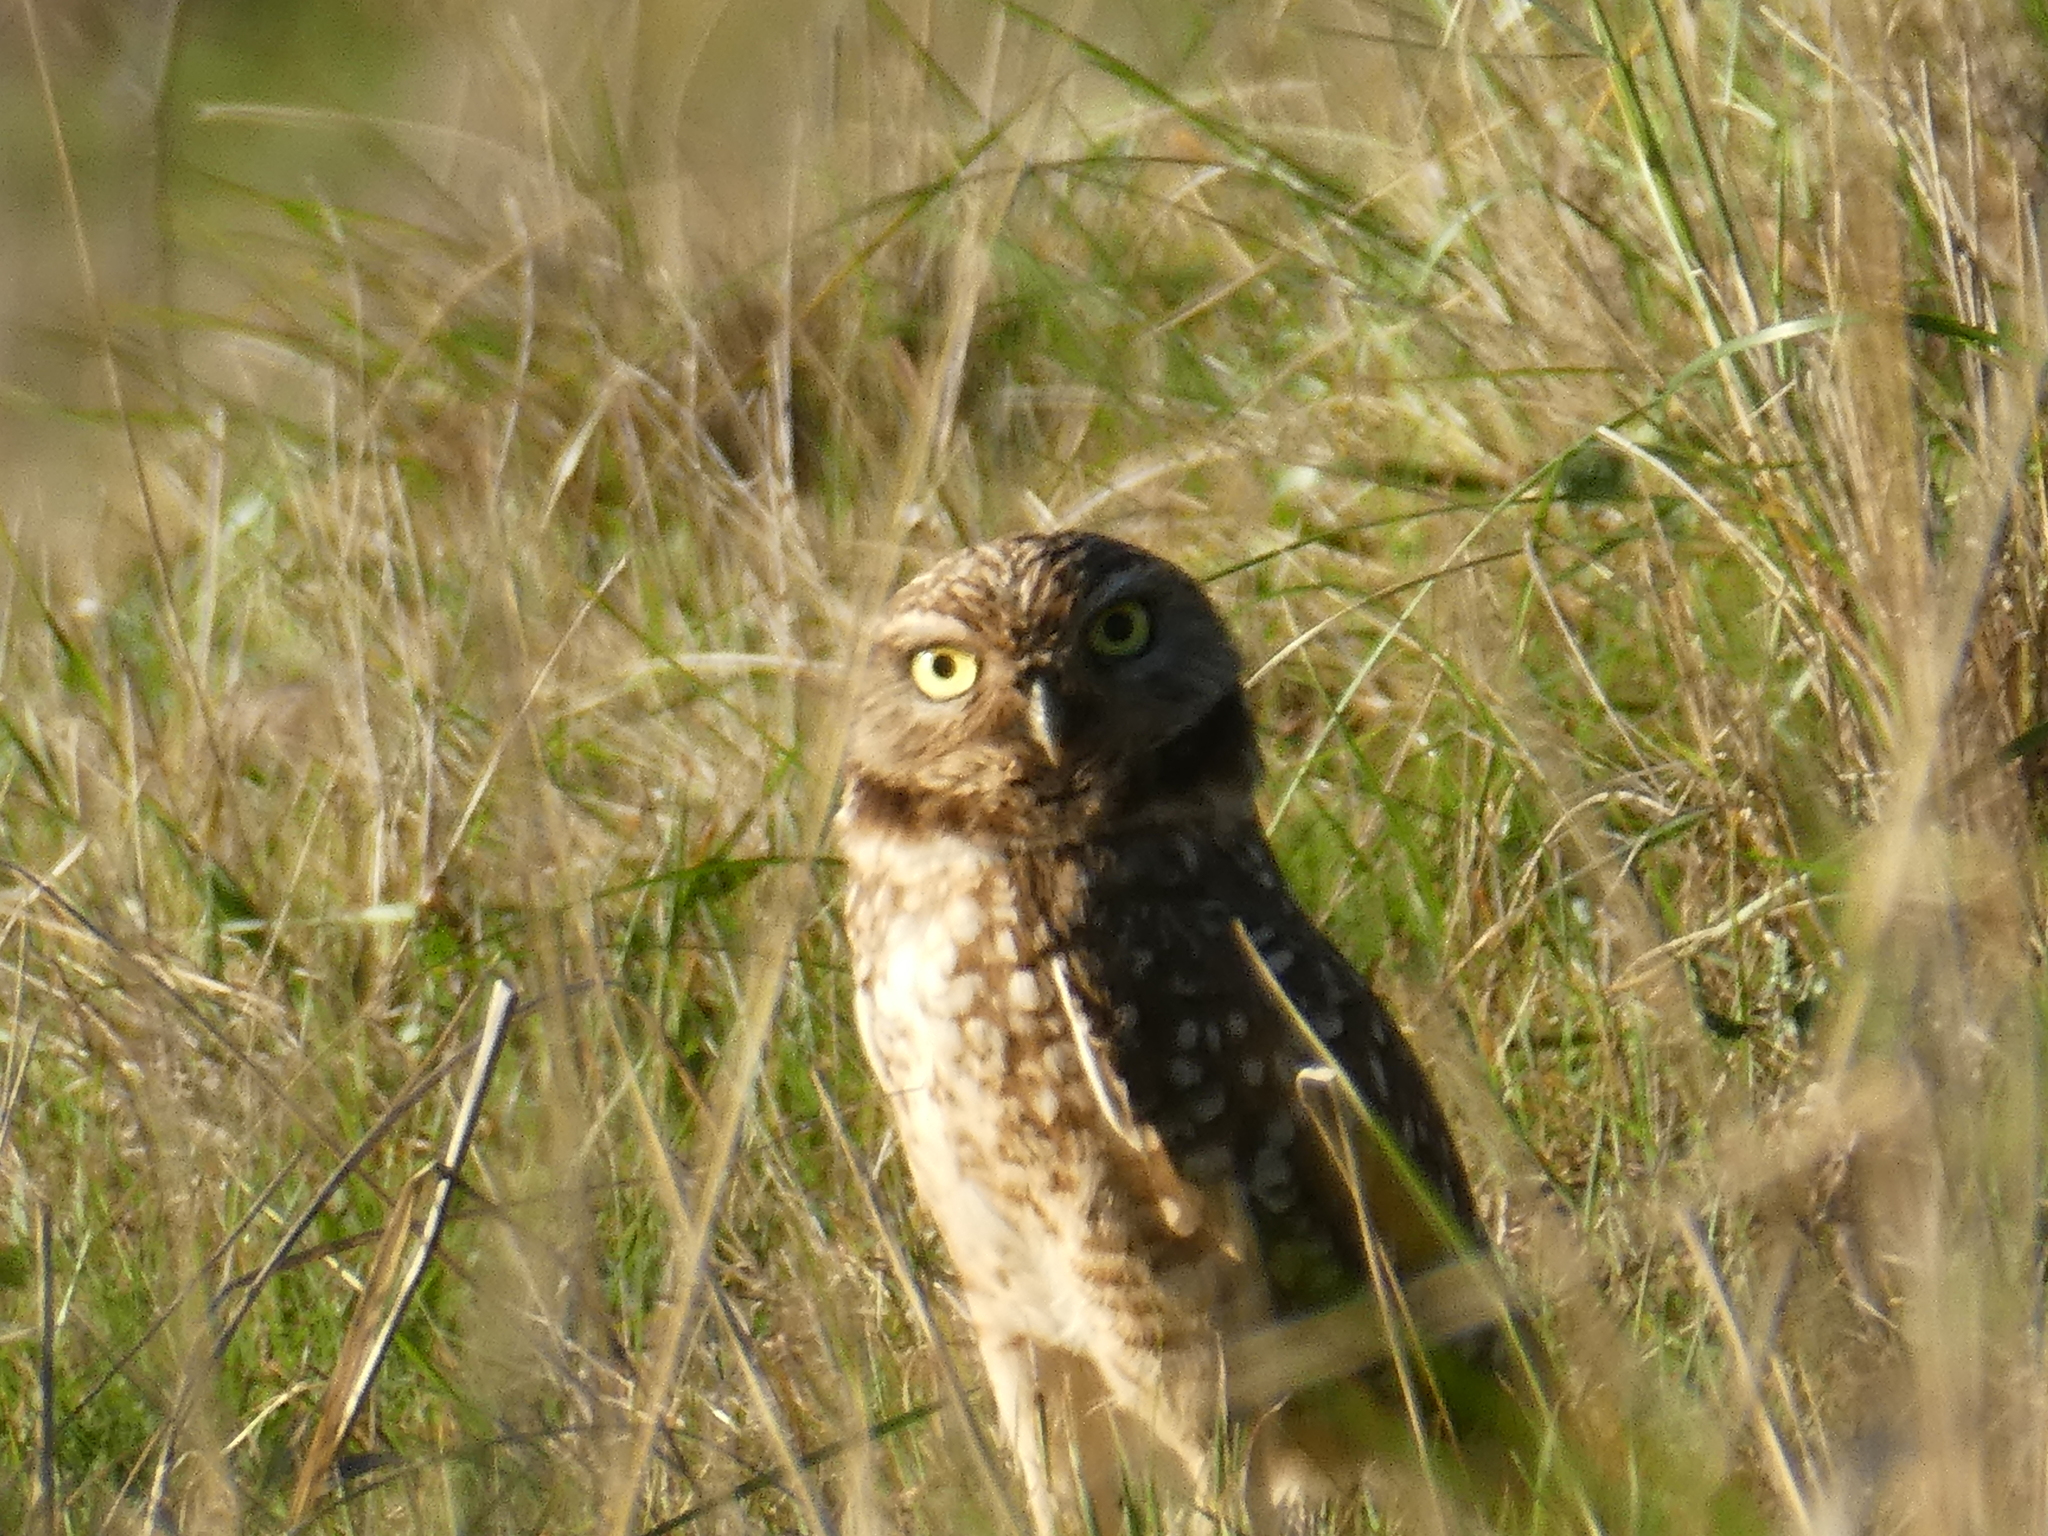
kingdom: Animalia
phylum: Chordata
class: Aves
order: Strigiformes
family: Strigidae
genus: Athene
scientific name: Athene cunicularia
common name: Burrowing owl
